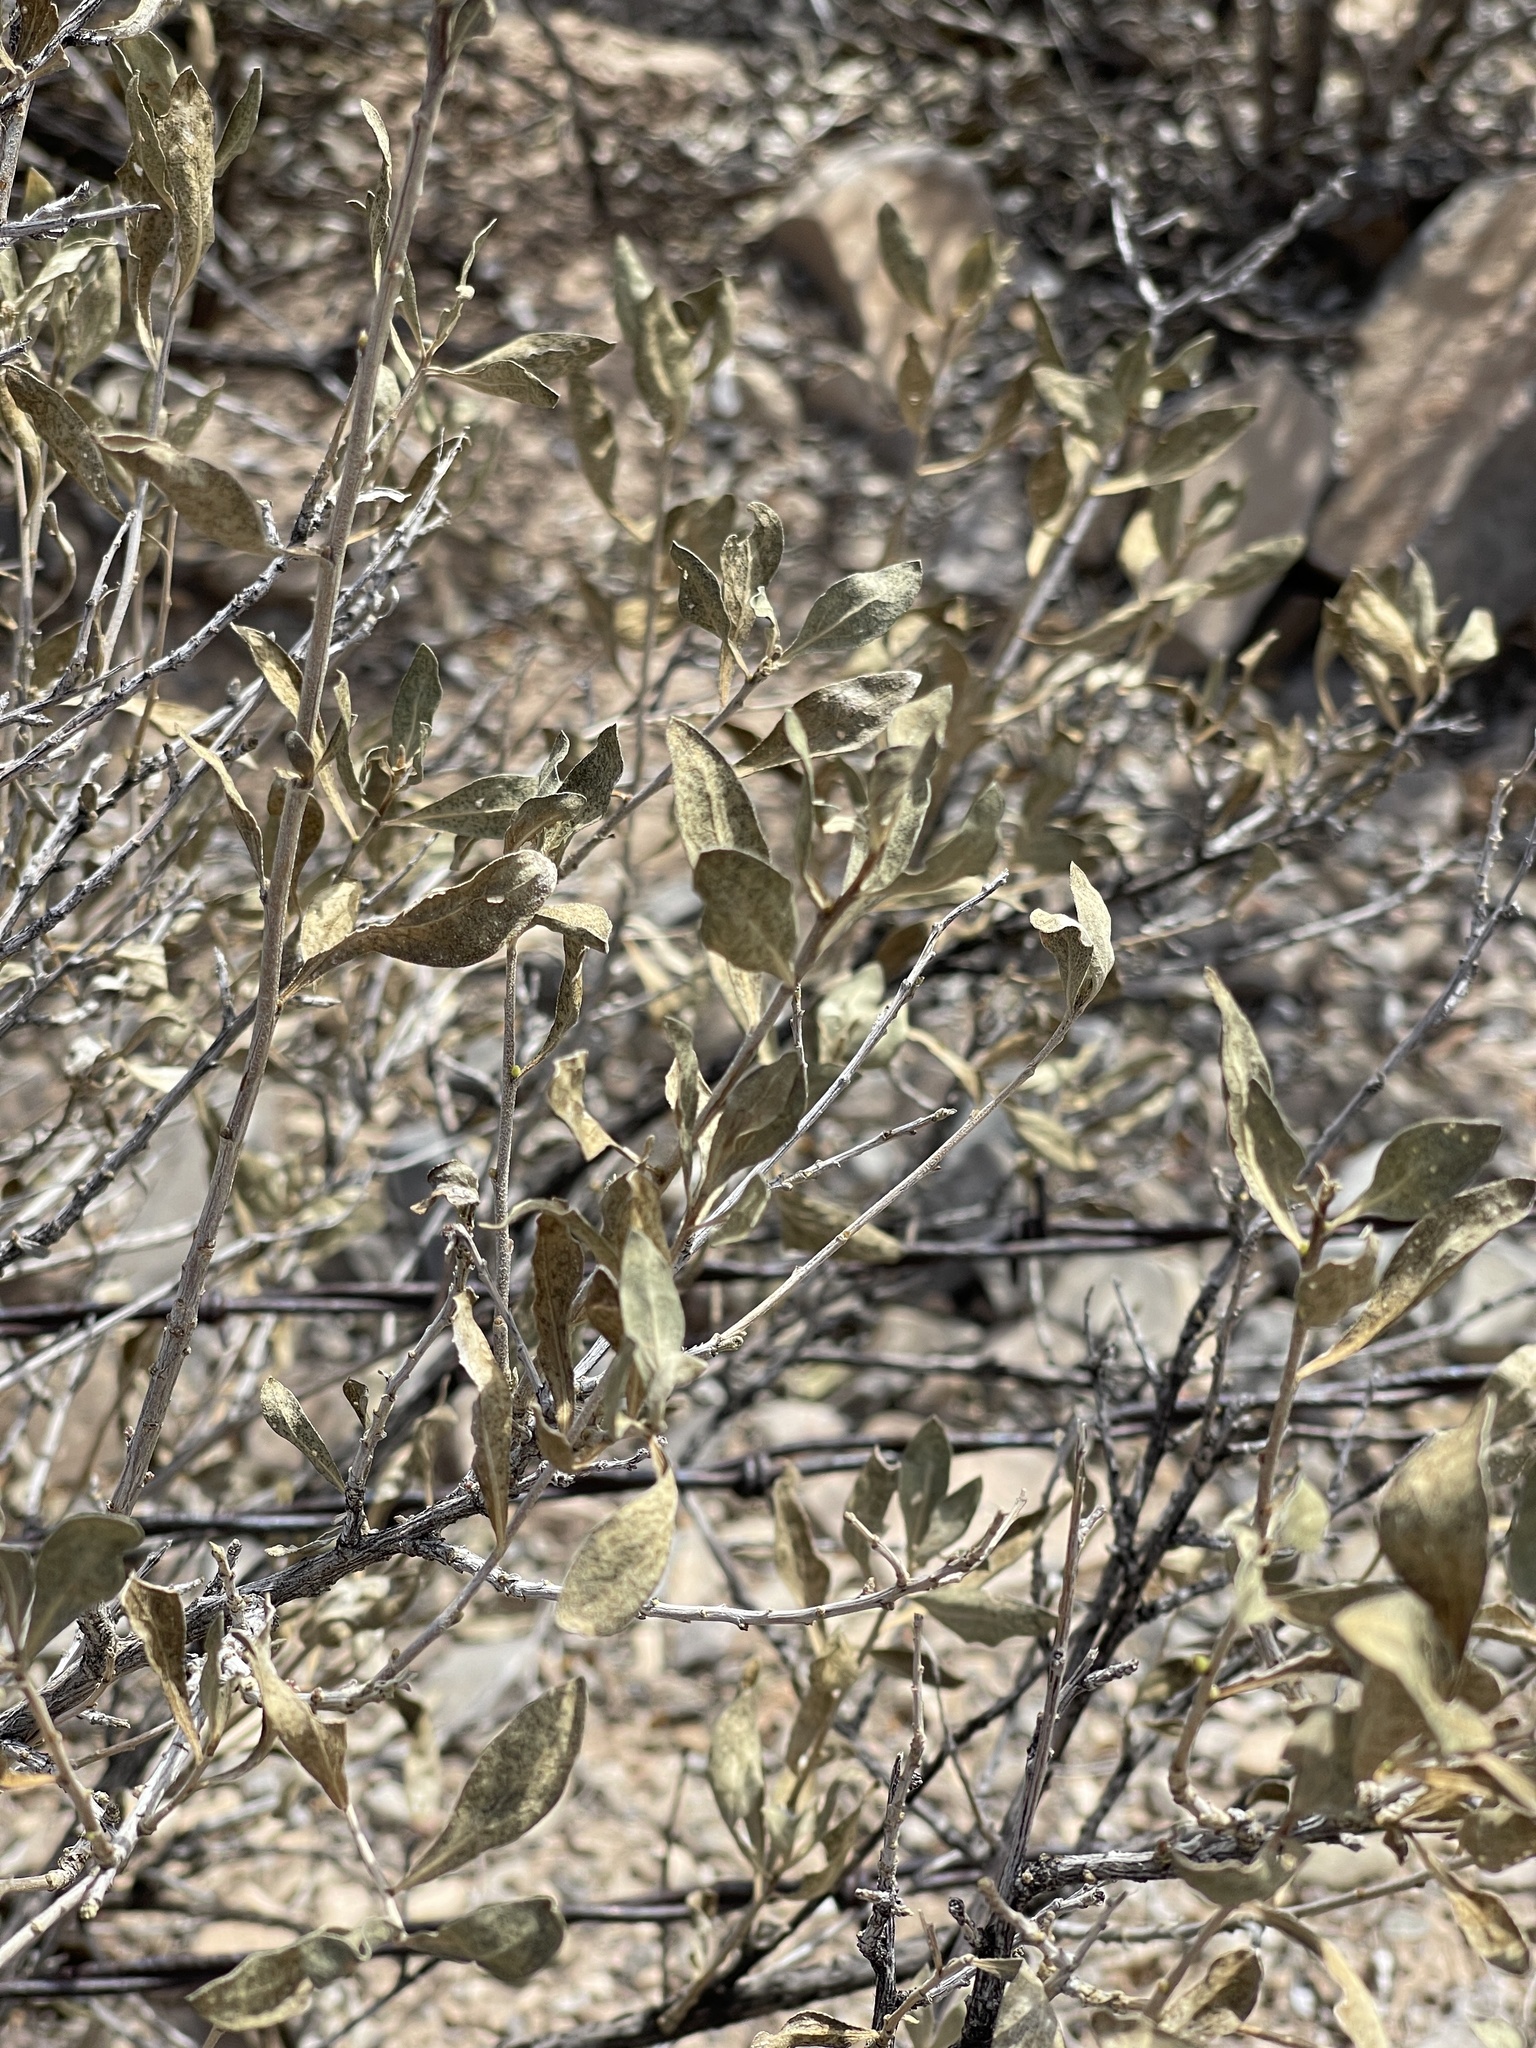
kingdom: Plantae
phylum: Tracheophyta
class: Magnoliopsida
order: Asterales
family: Asteraceae
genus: Flourensia
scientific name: Flourensia cernua
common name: Varnishbush
